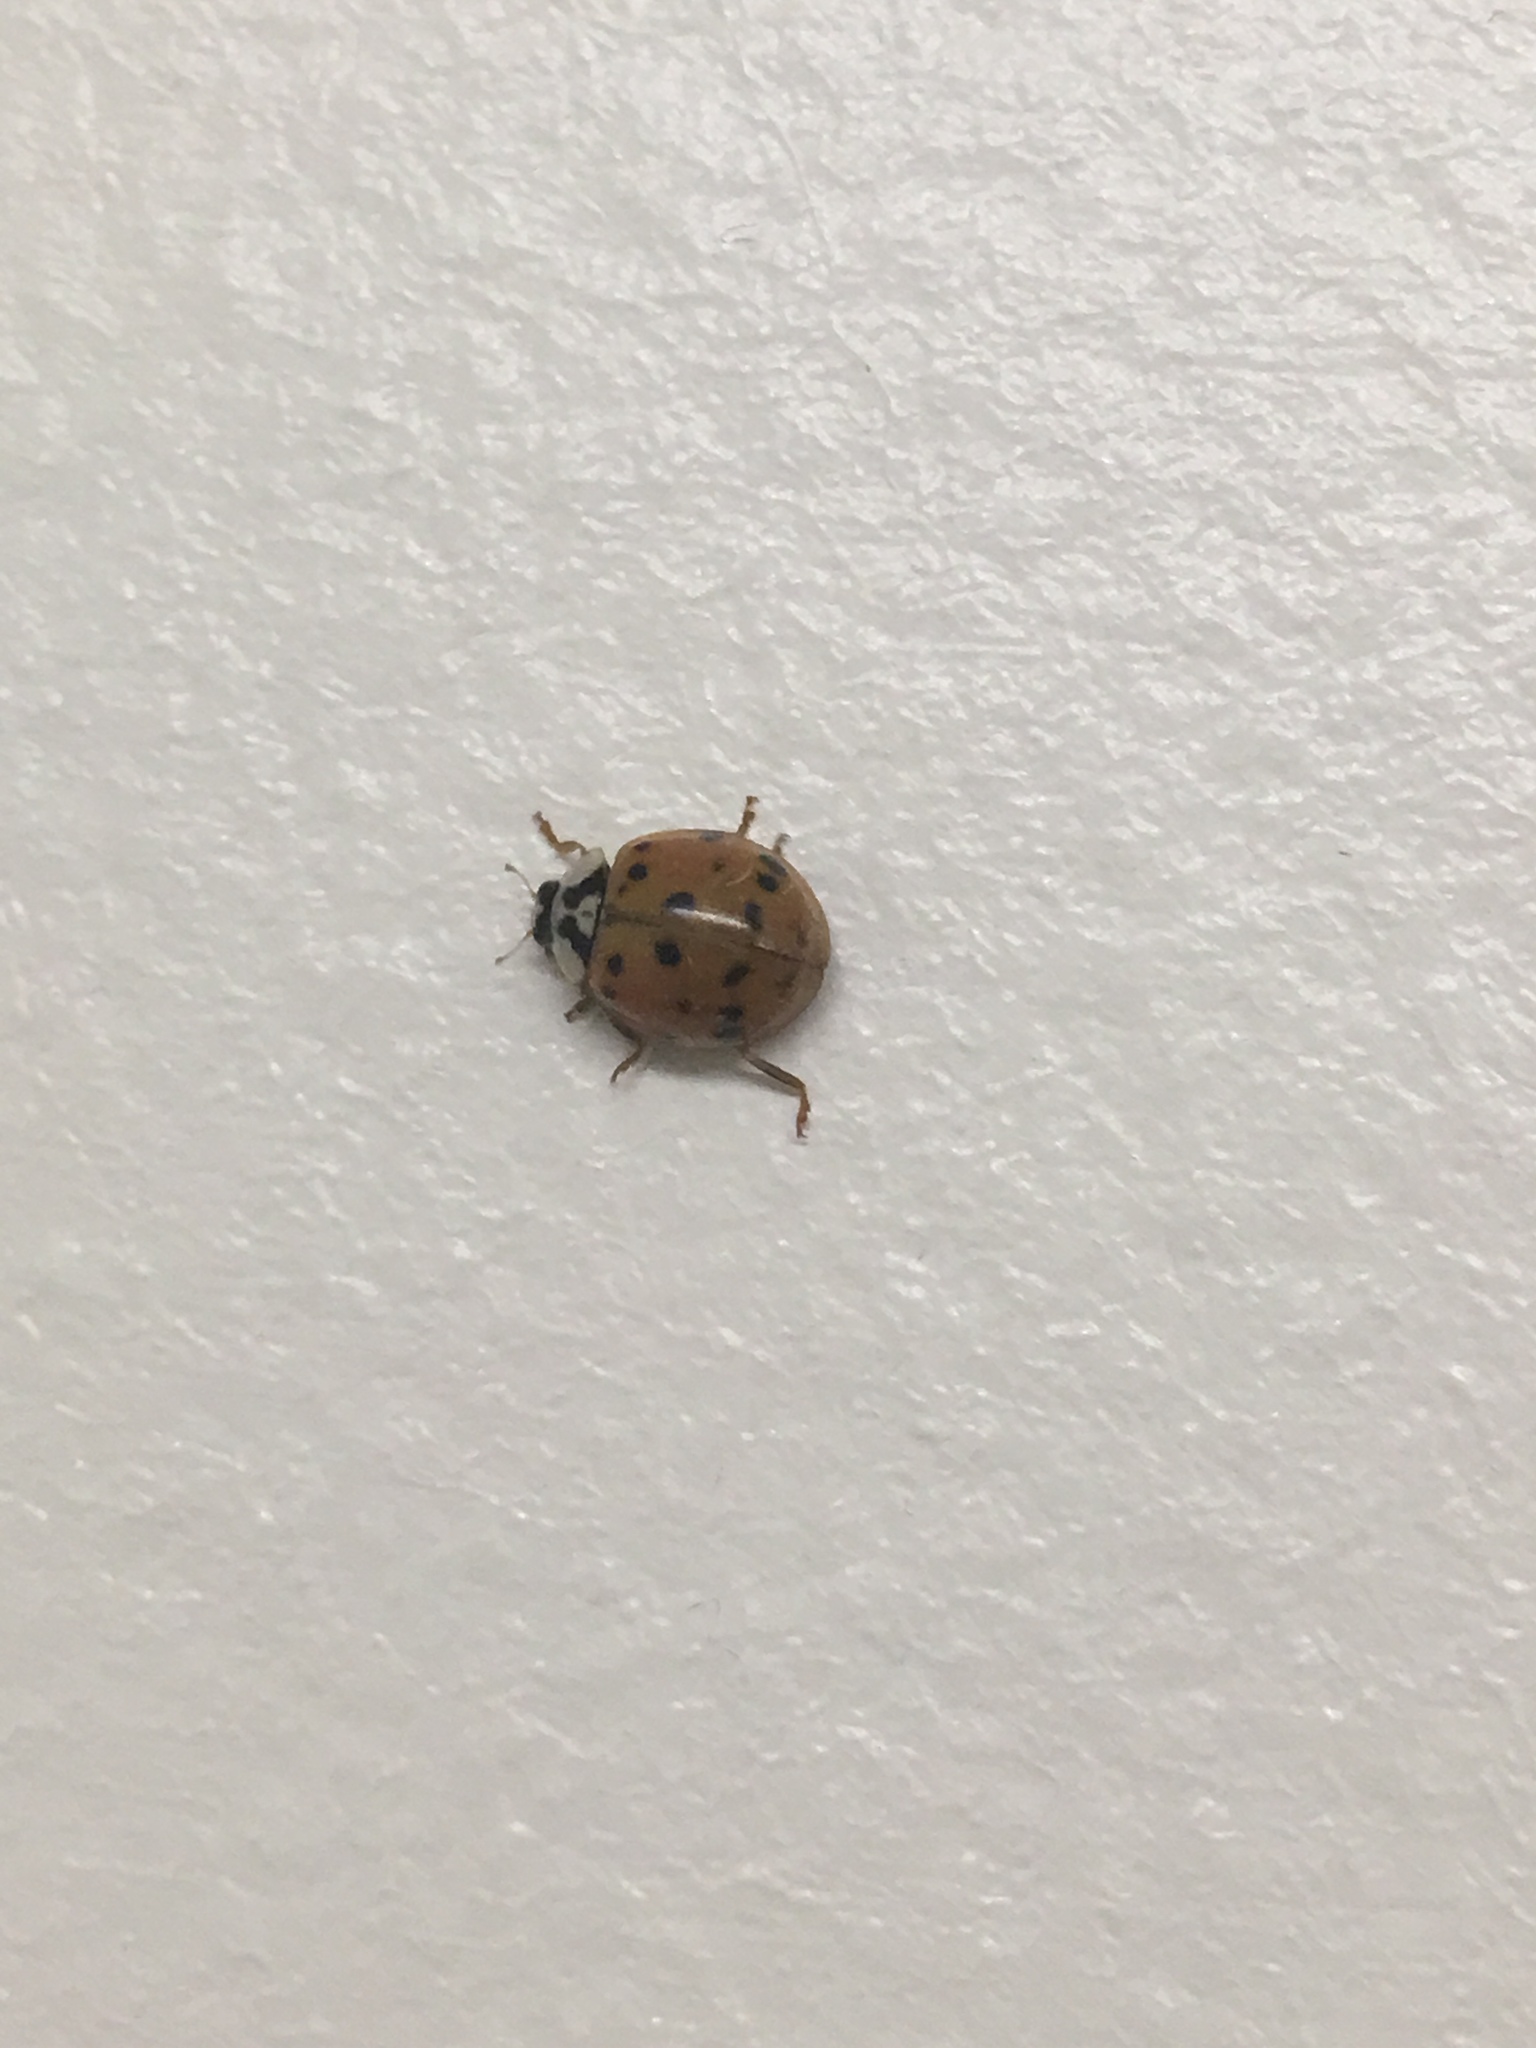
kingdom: Animalia
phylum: Arthropoda
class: Insecta
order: Coleoptera
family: Coccinellidae
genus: Harmonia
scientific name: Harmonia axyridis
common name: Harlequin ladybird
